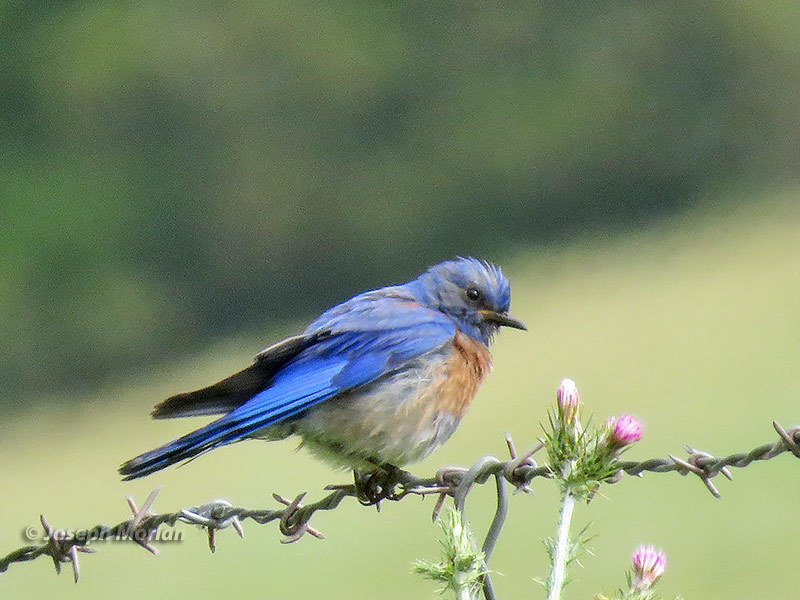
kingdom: Animalia
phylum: Chordata
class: Aves
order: Passeriformes
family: Turdidae
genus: Sialia
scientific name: Sialia mexicana
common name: Western bluebird
